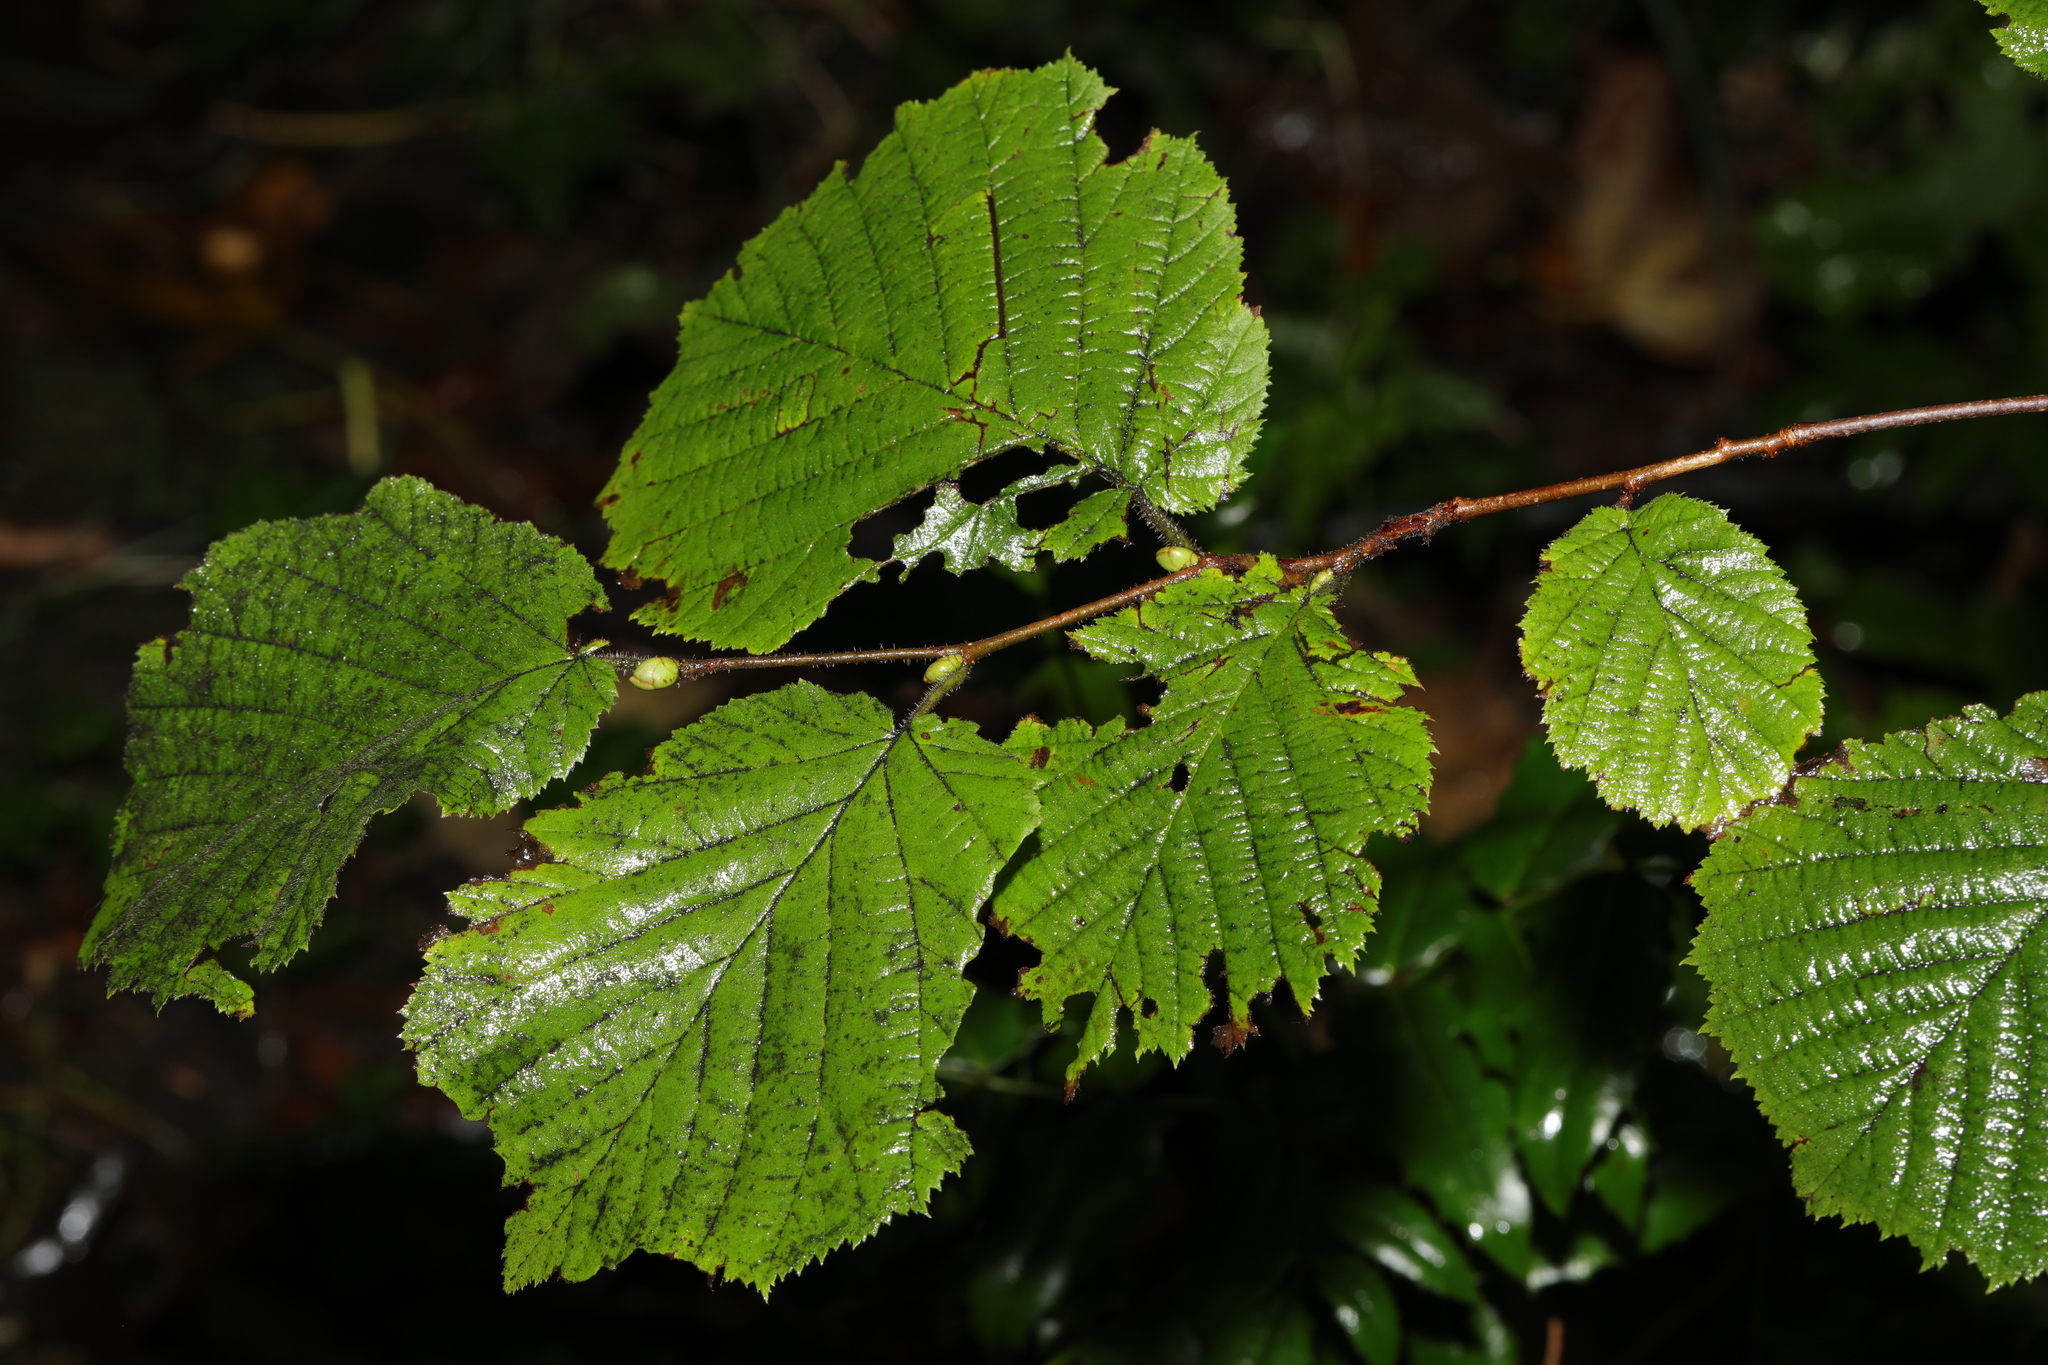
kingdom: Plantae
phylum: Tracheophyta
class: Magnoliopsida
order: Fagales
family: Betulaceae
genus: Corylus
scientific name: Corylus avellana
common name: European hazel
